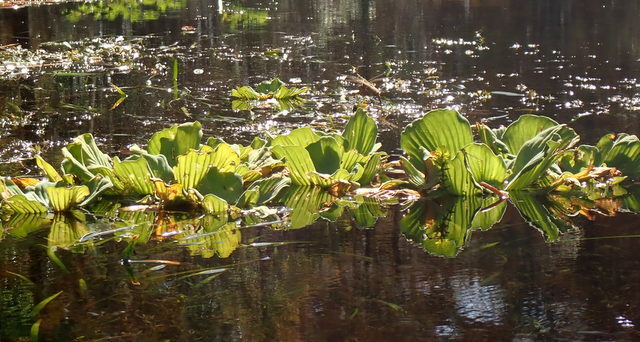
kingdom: Plantae
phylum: Tracheophyta
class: Liliopsida
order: Alismatales
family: Araceae
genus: Pistia
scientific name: Pistia stratiotes
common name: Water lettuce
